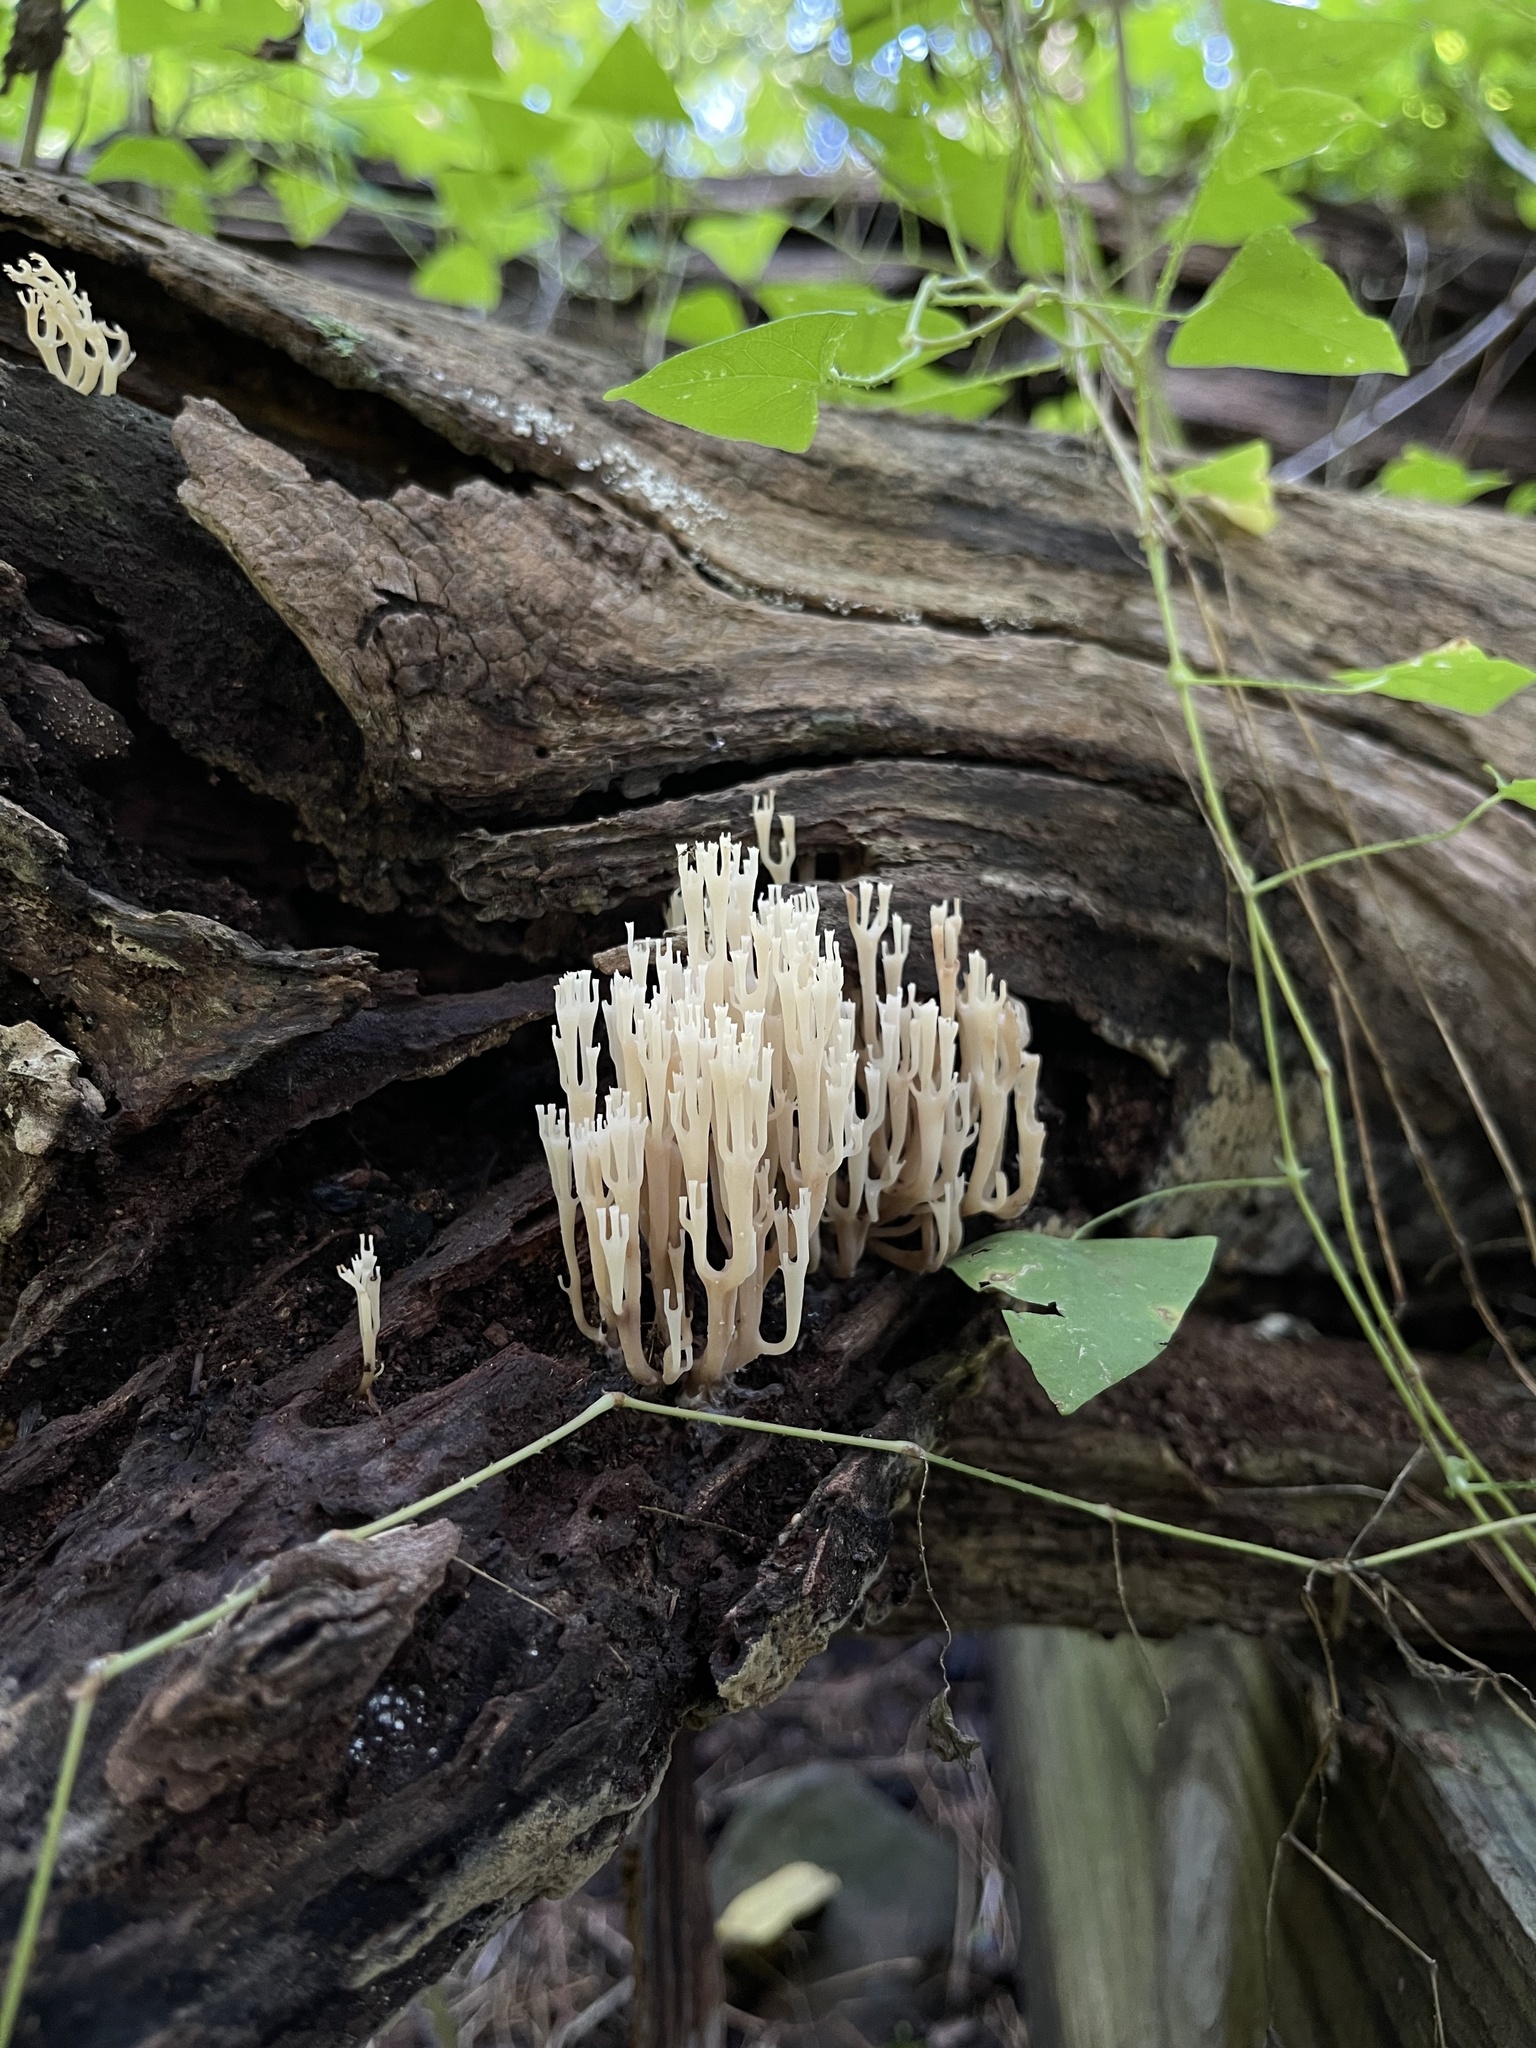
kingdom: Fungi
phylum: Basidiomycota
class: Agaricomycetes
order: Russulales
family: Auriscalpiaceae
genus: Artomyces
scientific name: Artomyces pyxidatus
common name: Crown-tipped coral fungus
